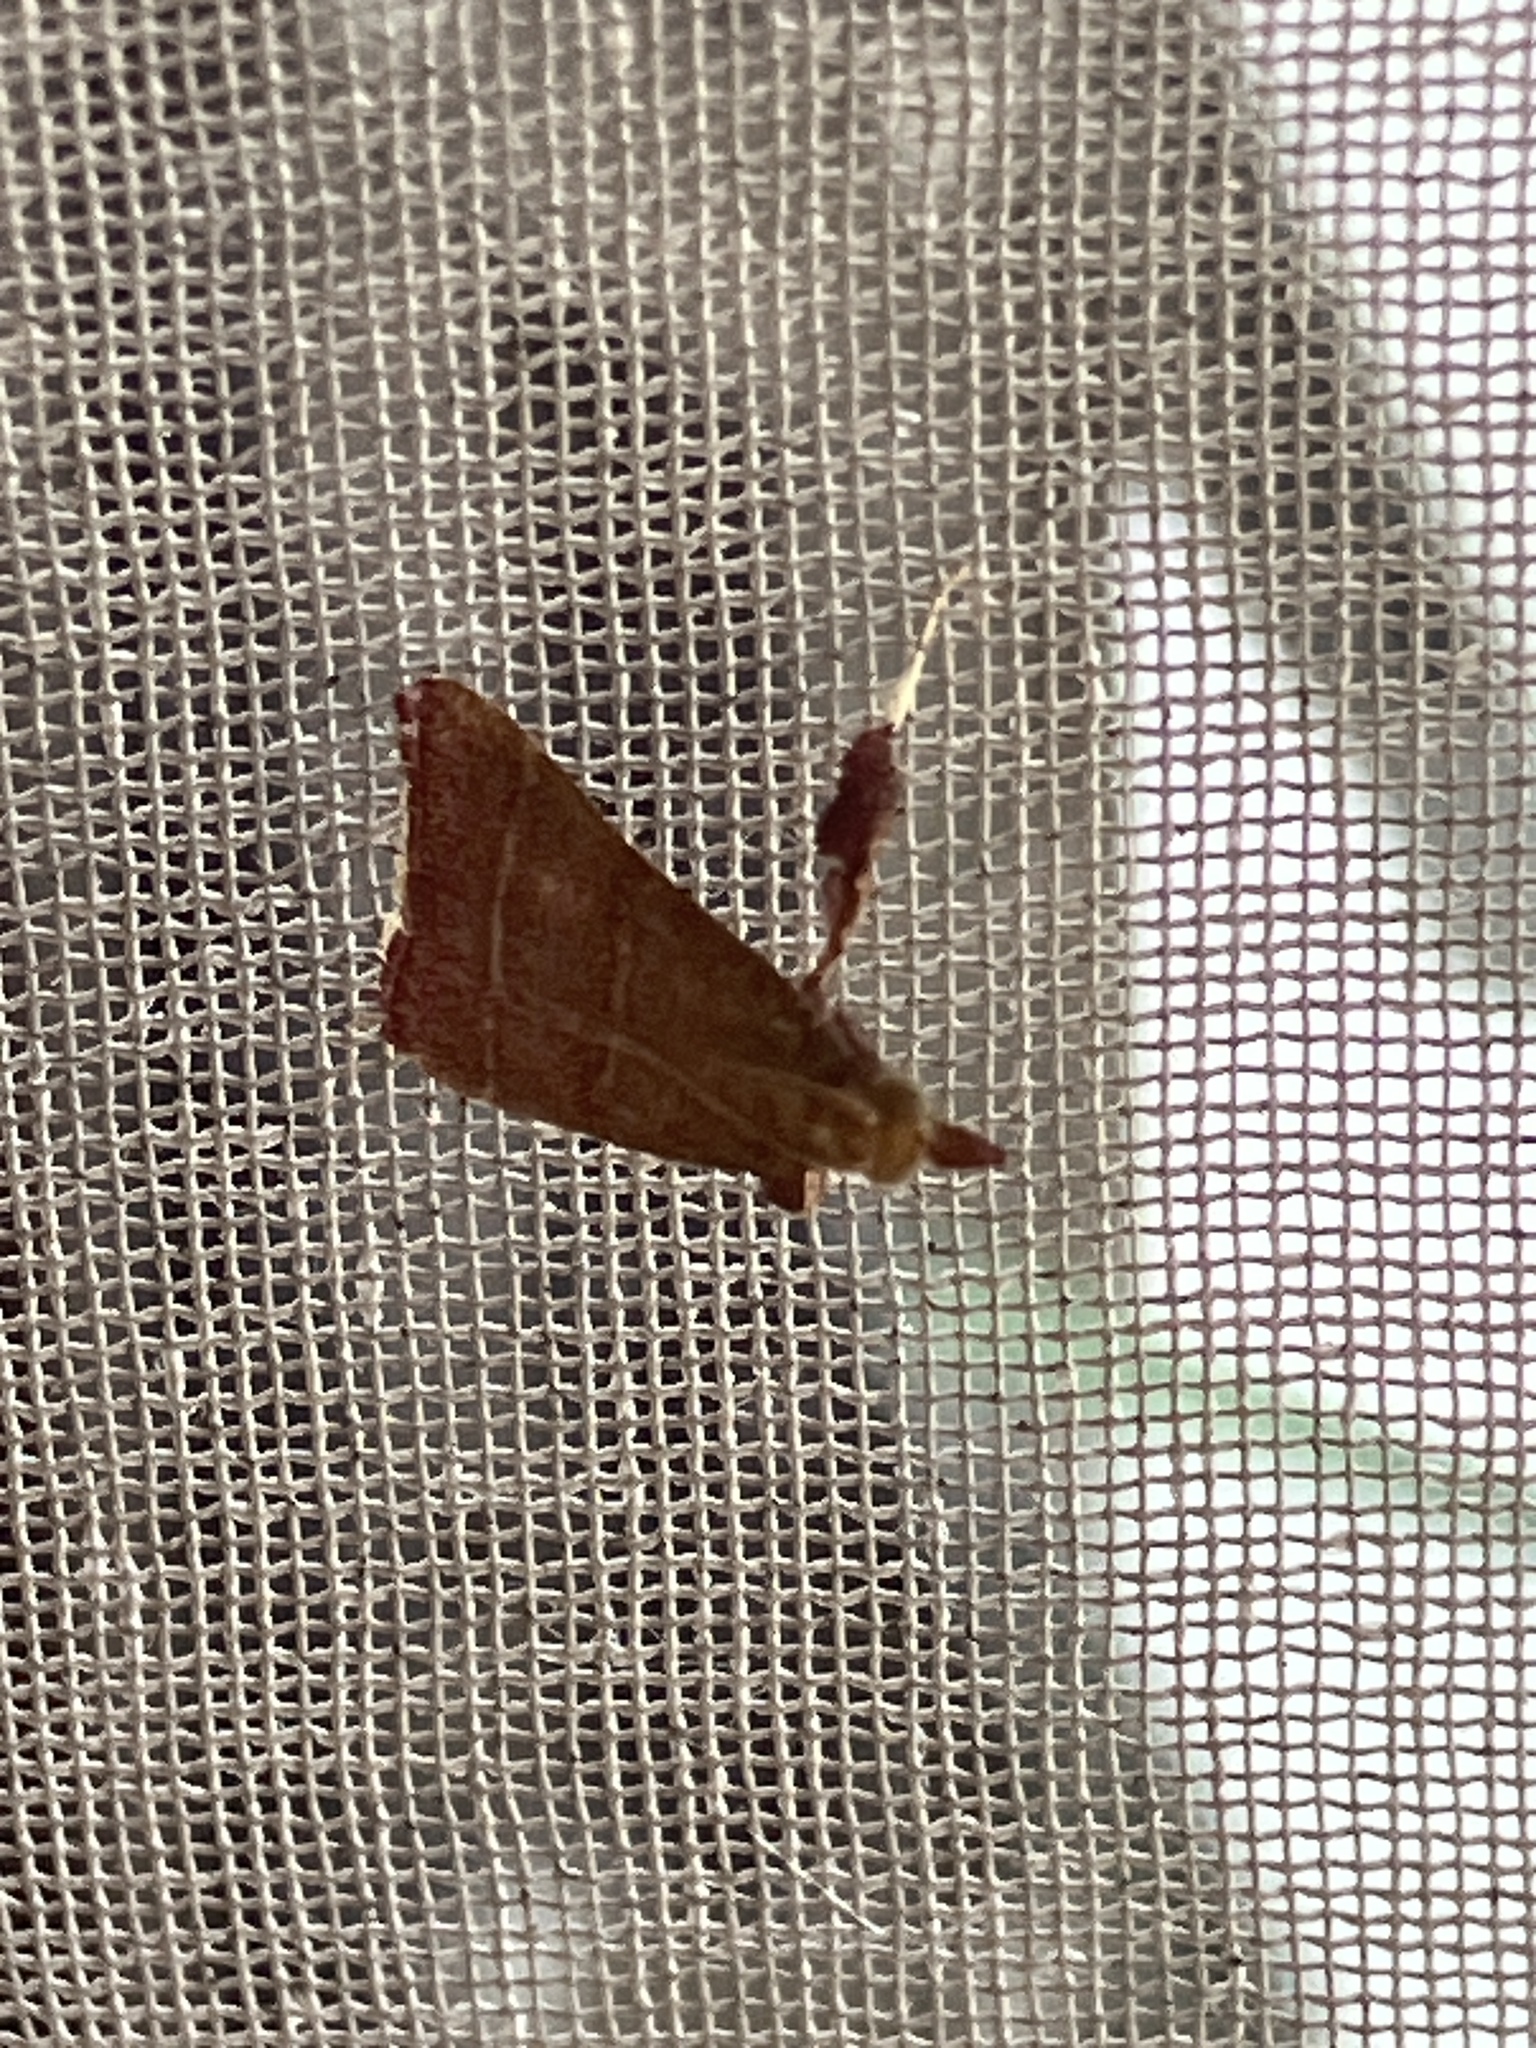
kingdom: Animalia
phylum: Arthropoda
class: Insecta
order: Lepidoptera
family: Pyralidae
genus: Caphys
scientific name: Caphys bilineata
